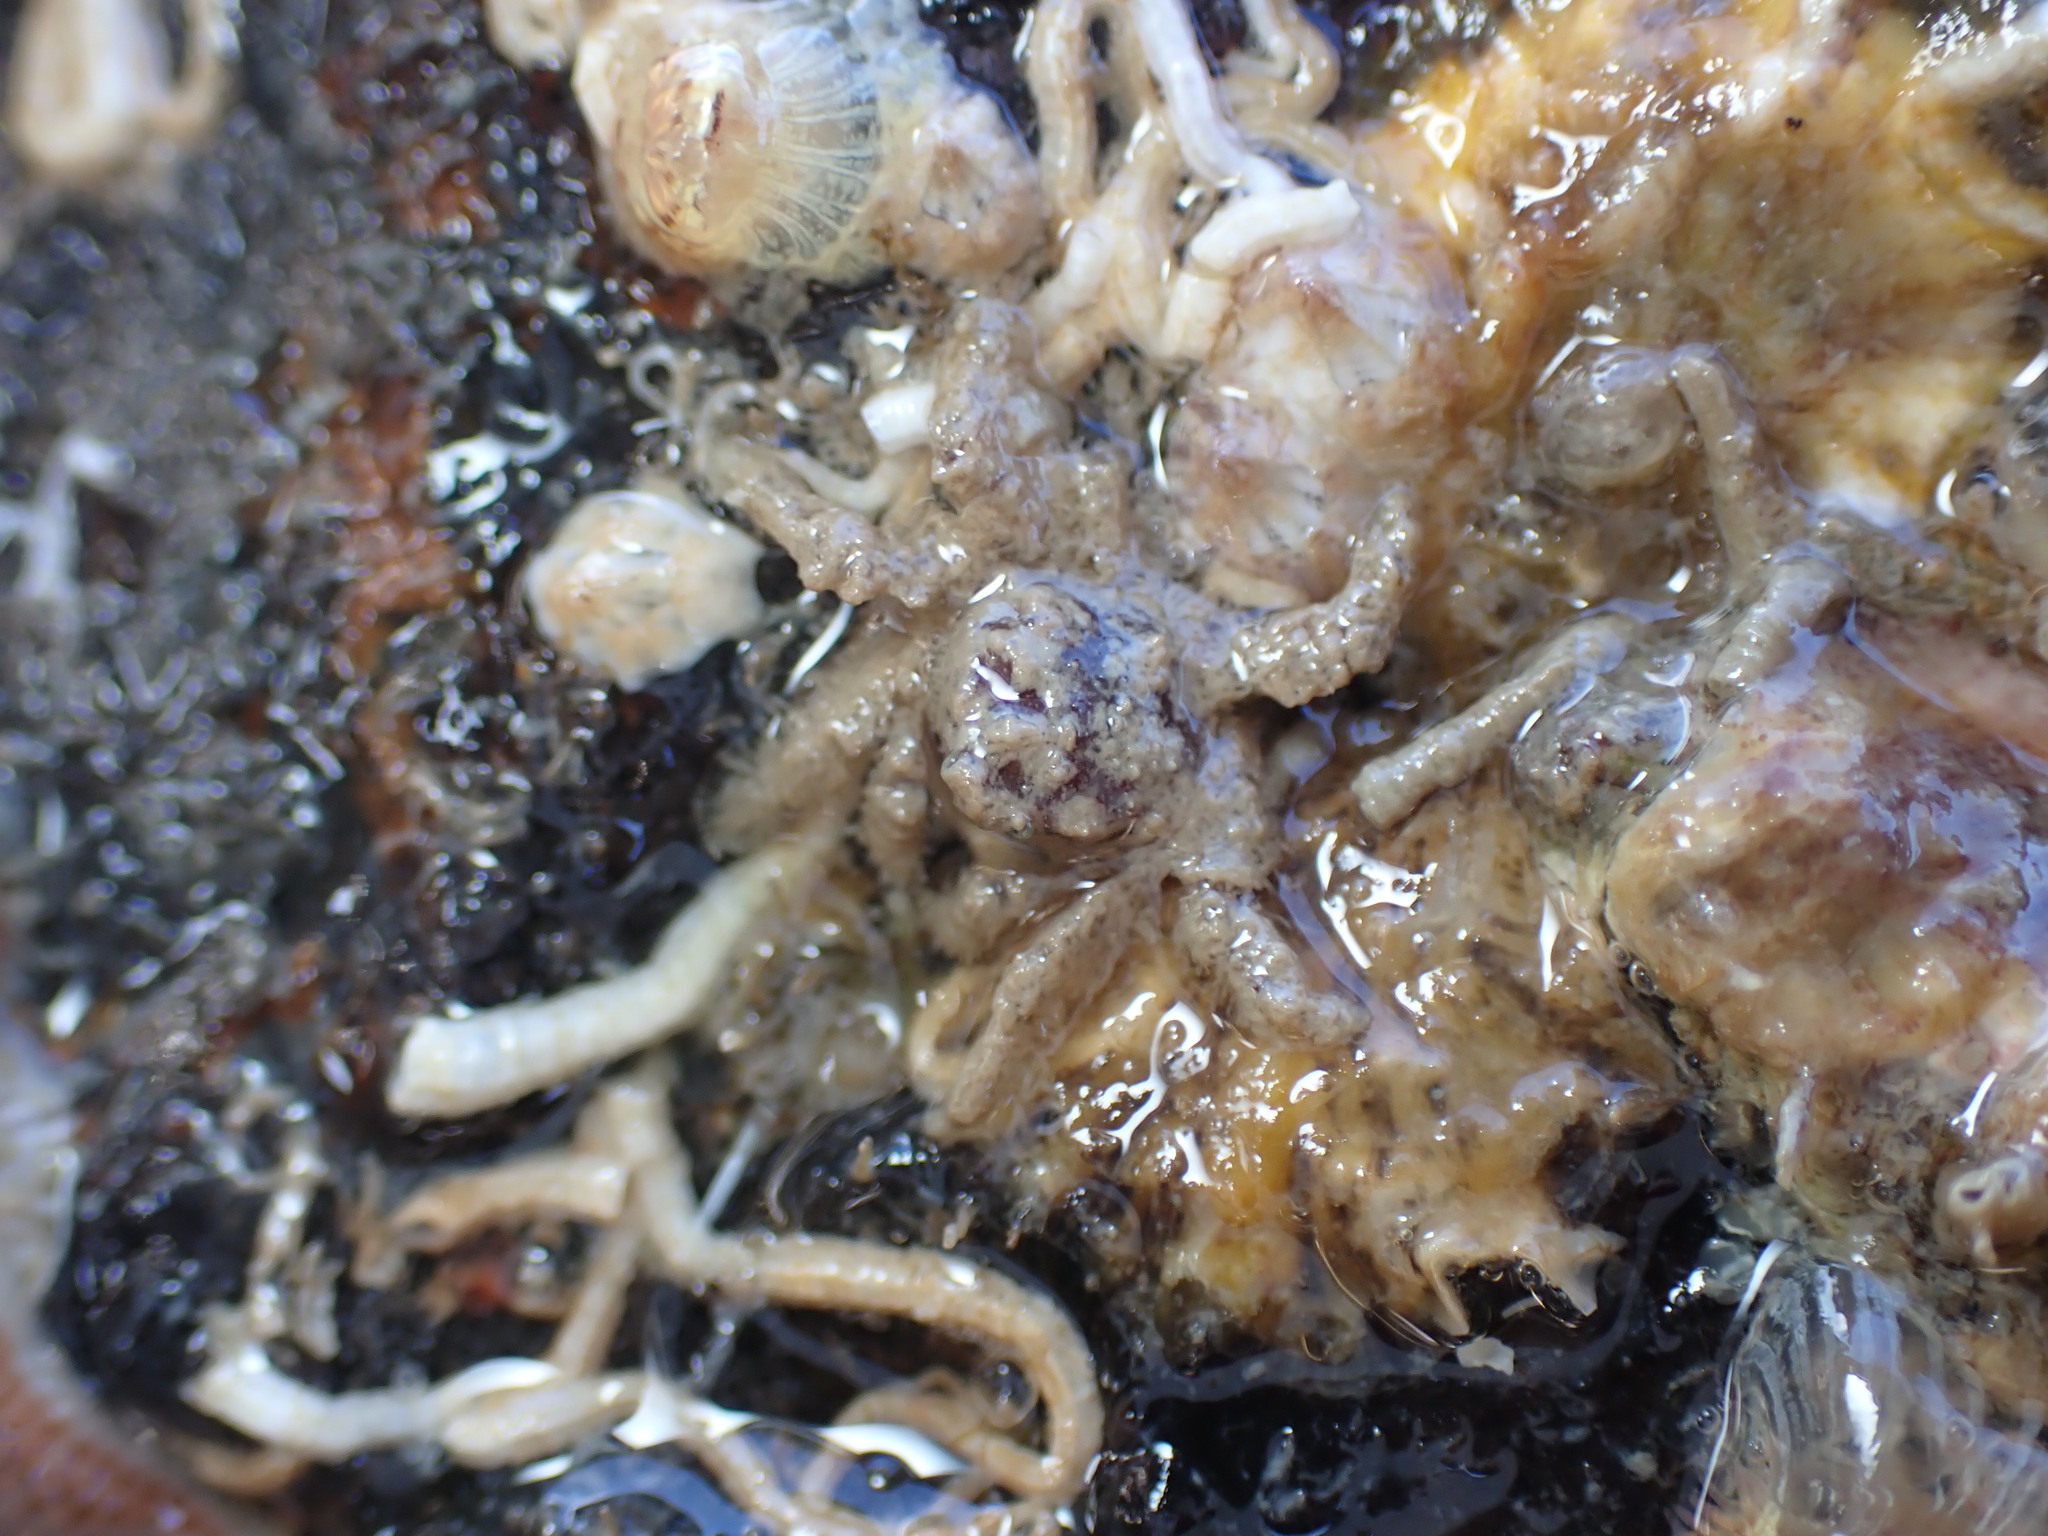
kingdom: Animalia
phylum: Arthropoda
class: Malacostraca
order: Decapoda
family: Hymenosomatidae
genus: Neohymenicus
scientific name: Neohymenicus pubescens
